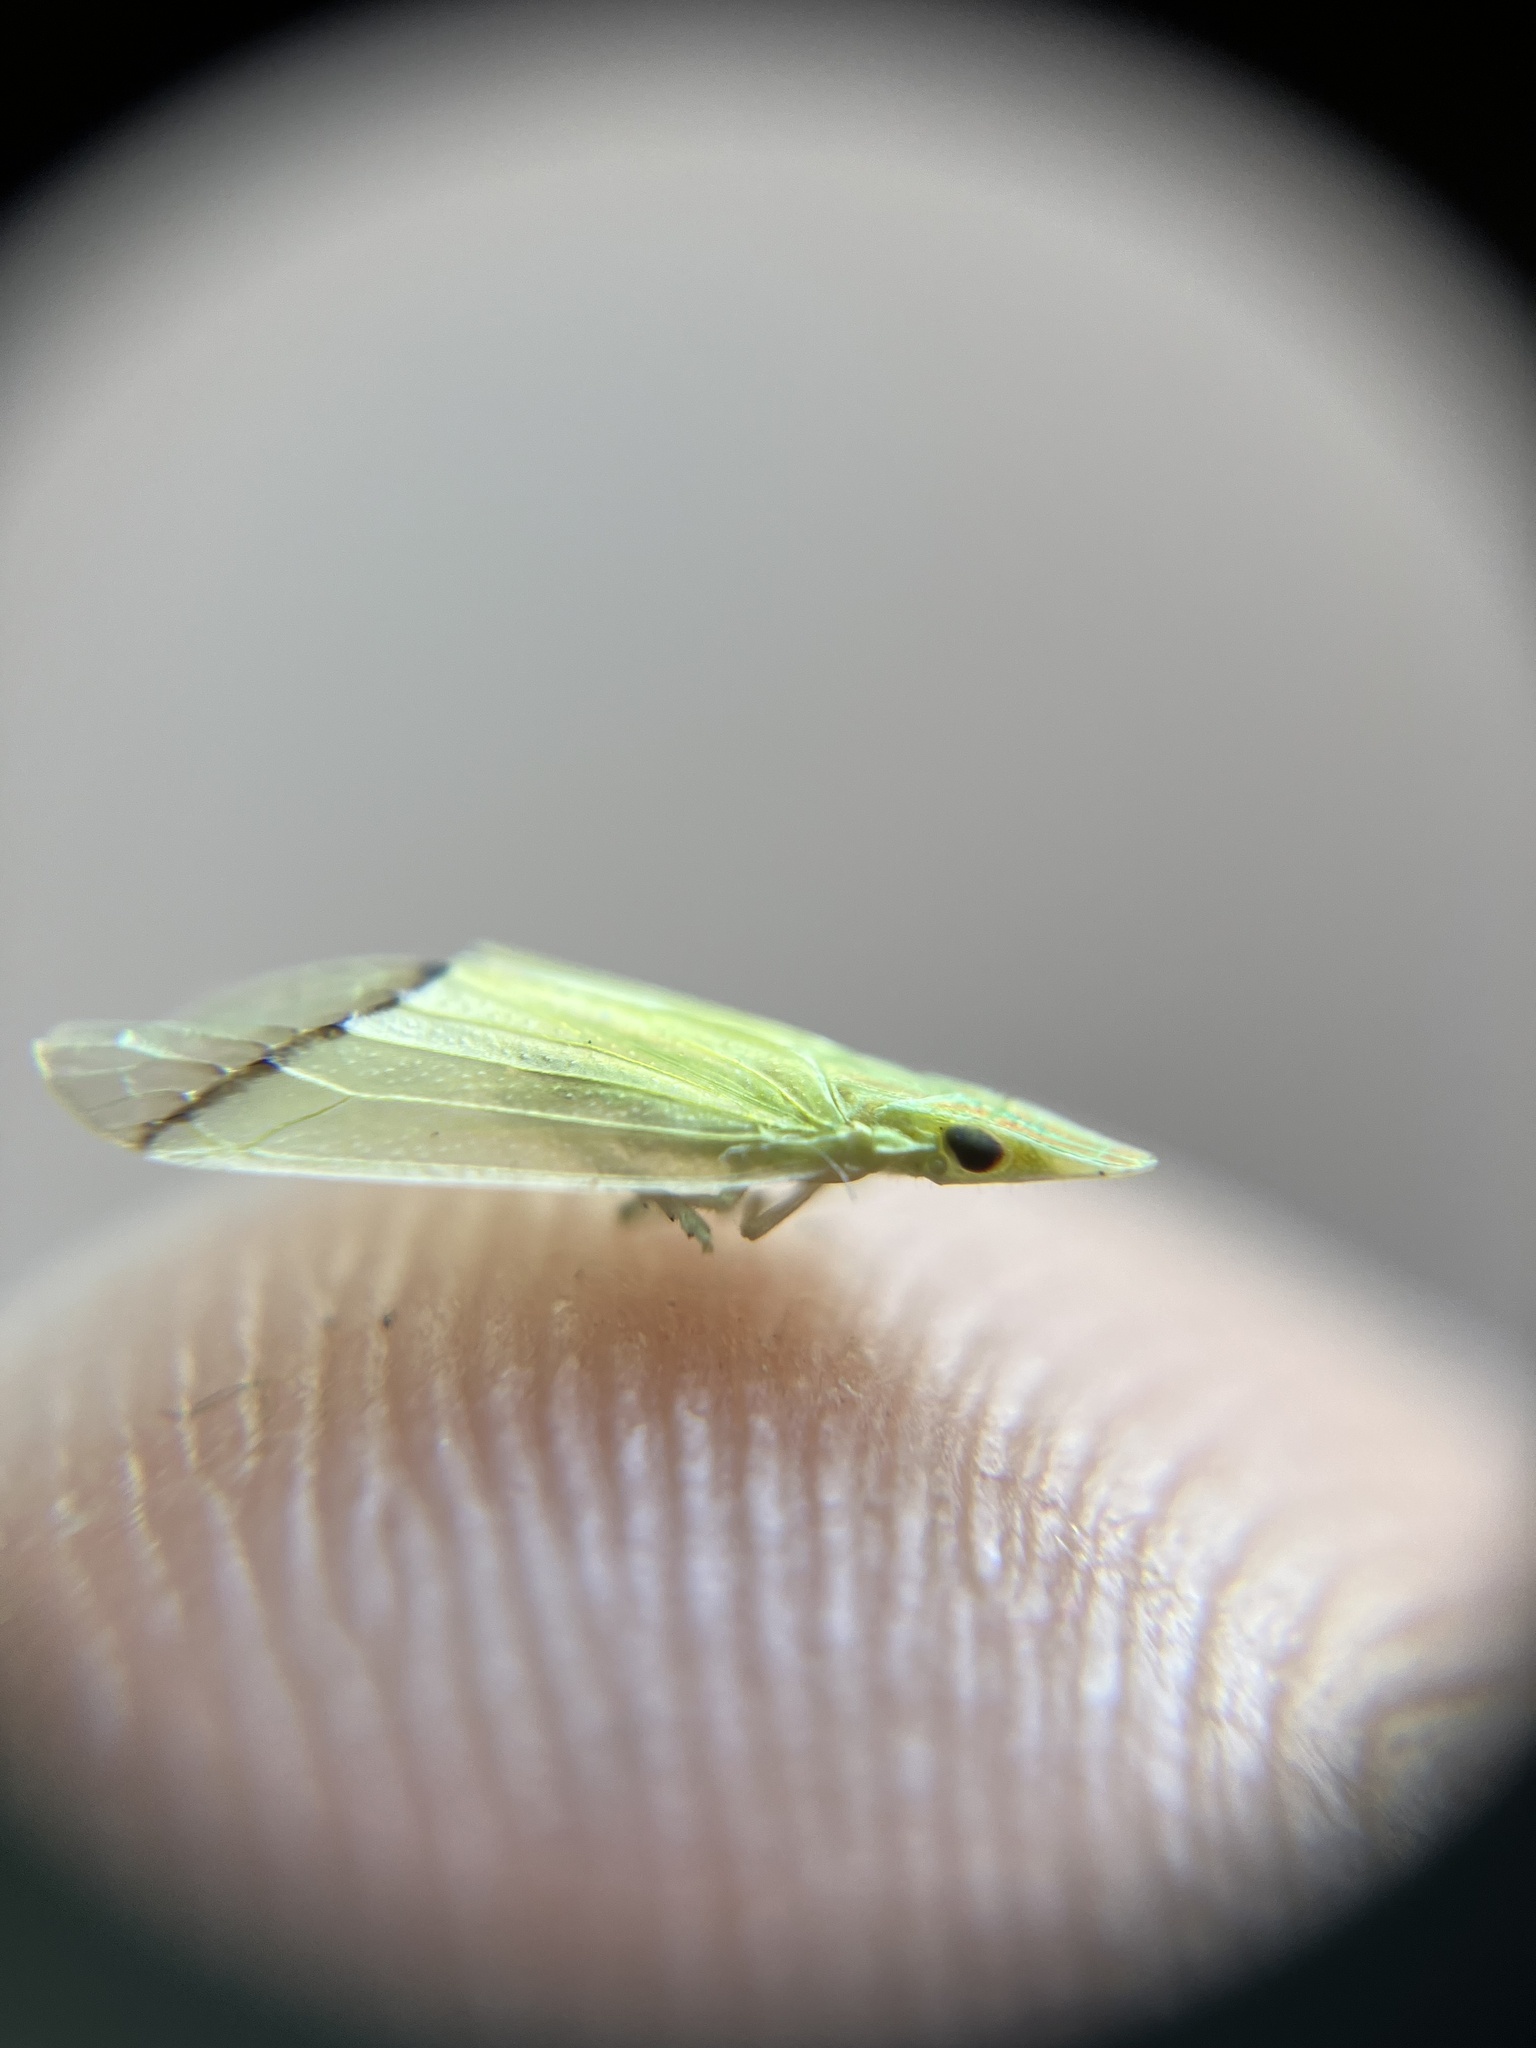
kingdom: Animalia
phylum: Arthropoda
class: Insecta
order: Hemiptera
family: Tropiduchidae
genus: Tambinia
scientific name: Tambinia verticalis
